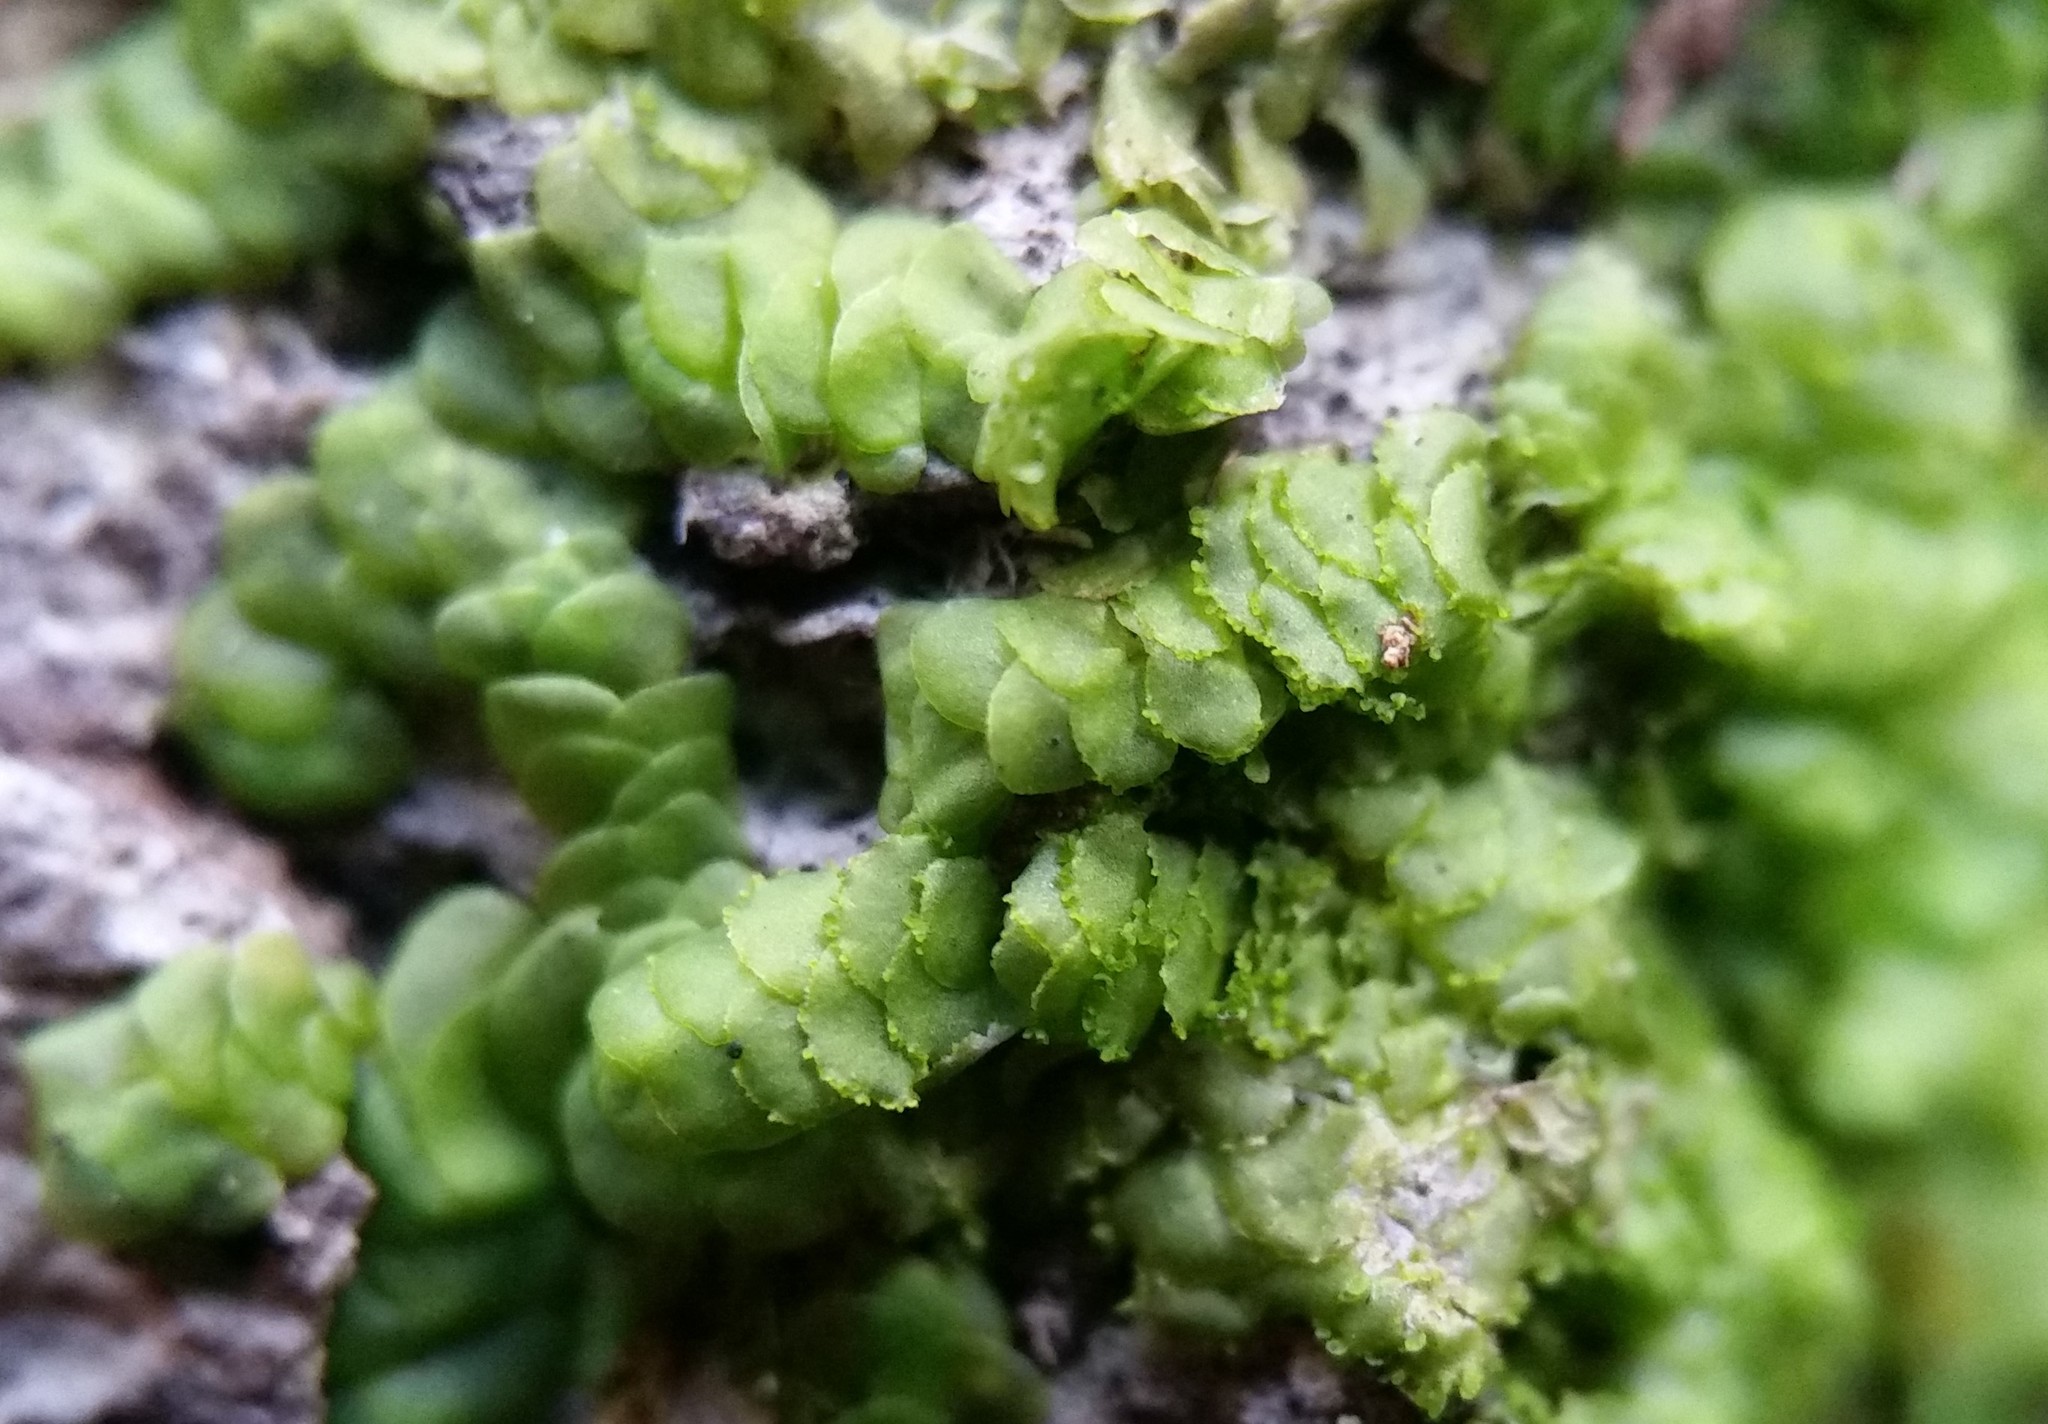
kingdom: Plantae
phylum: Marchantiophyta
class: Jungermanniopsida
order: Porellales
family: Radulaceae
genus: Radula
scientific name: Radula complanata
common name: Flat-leaved scalewort
